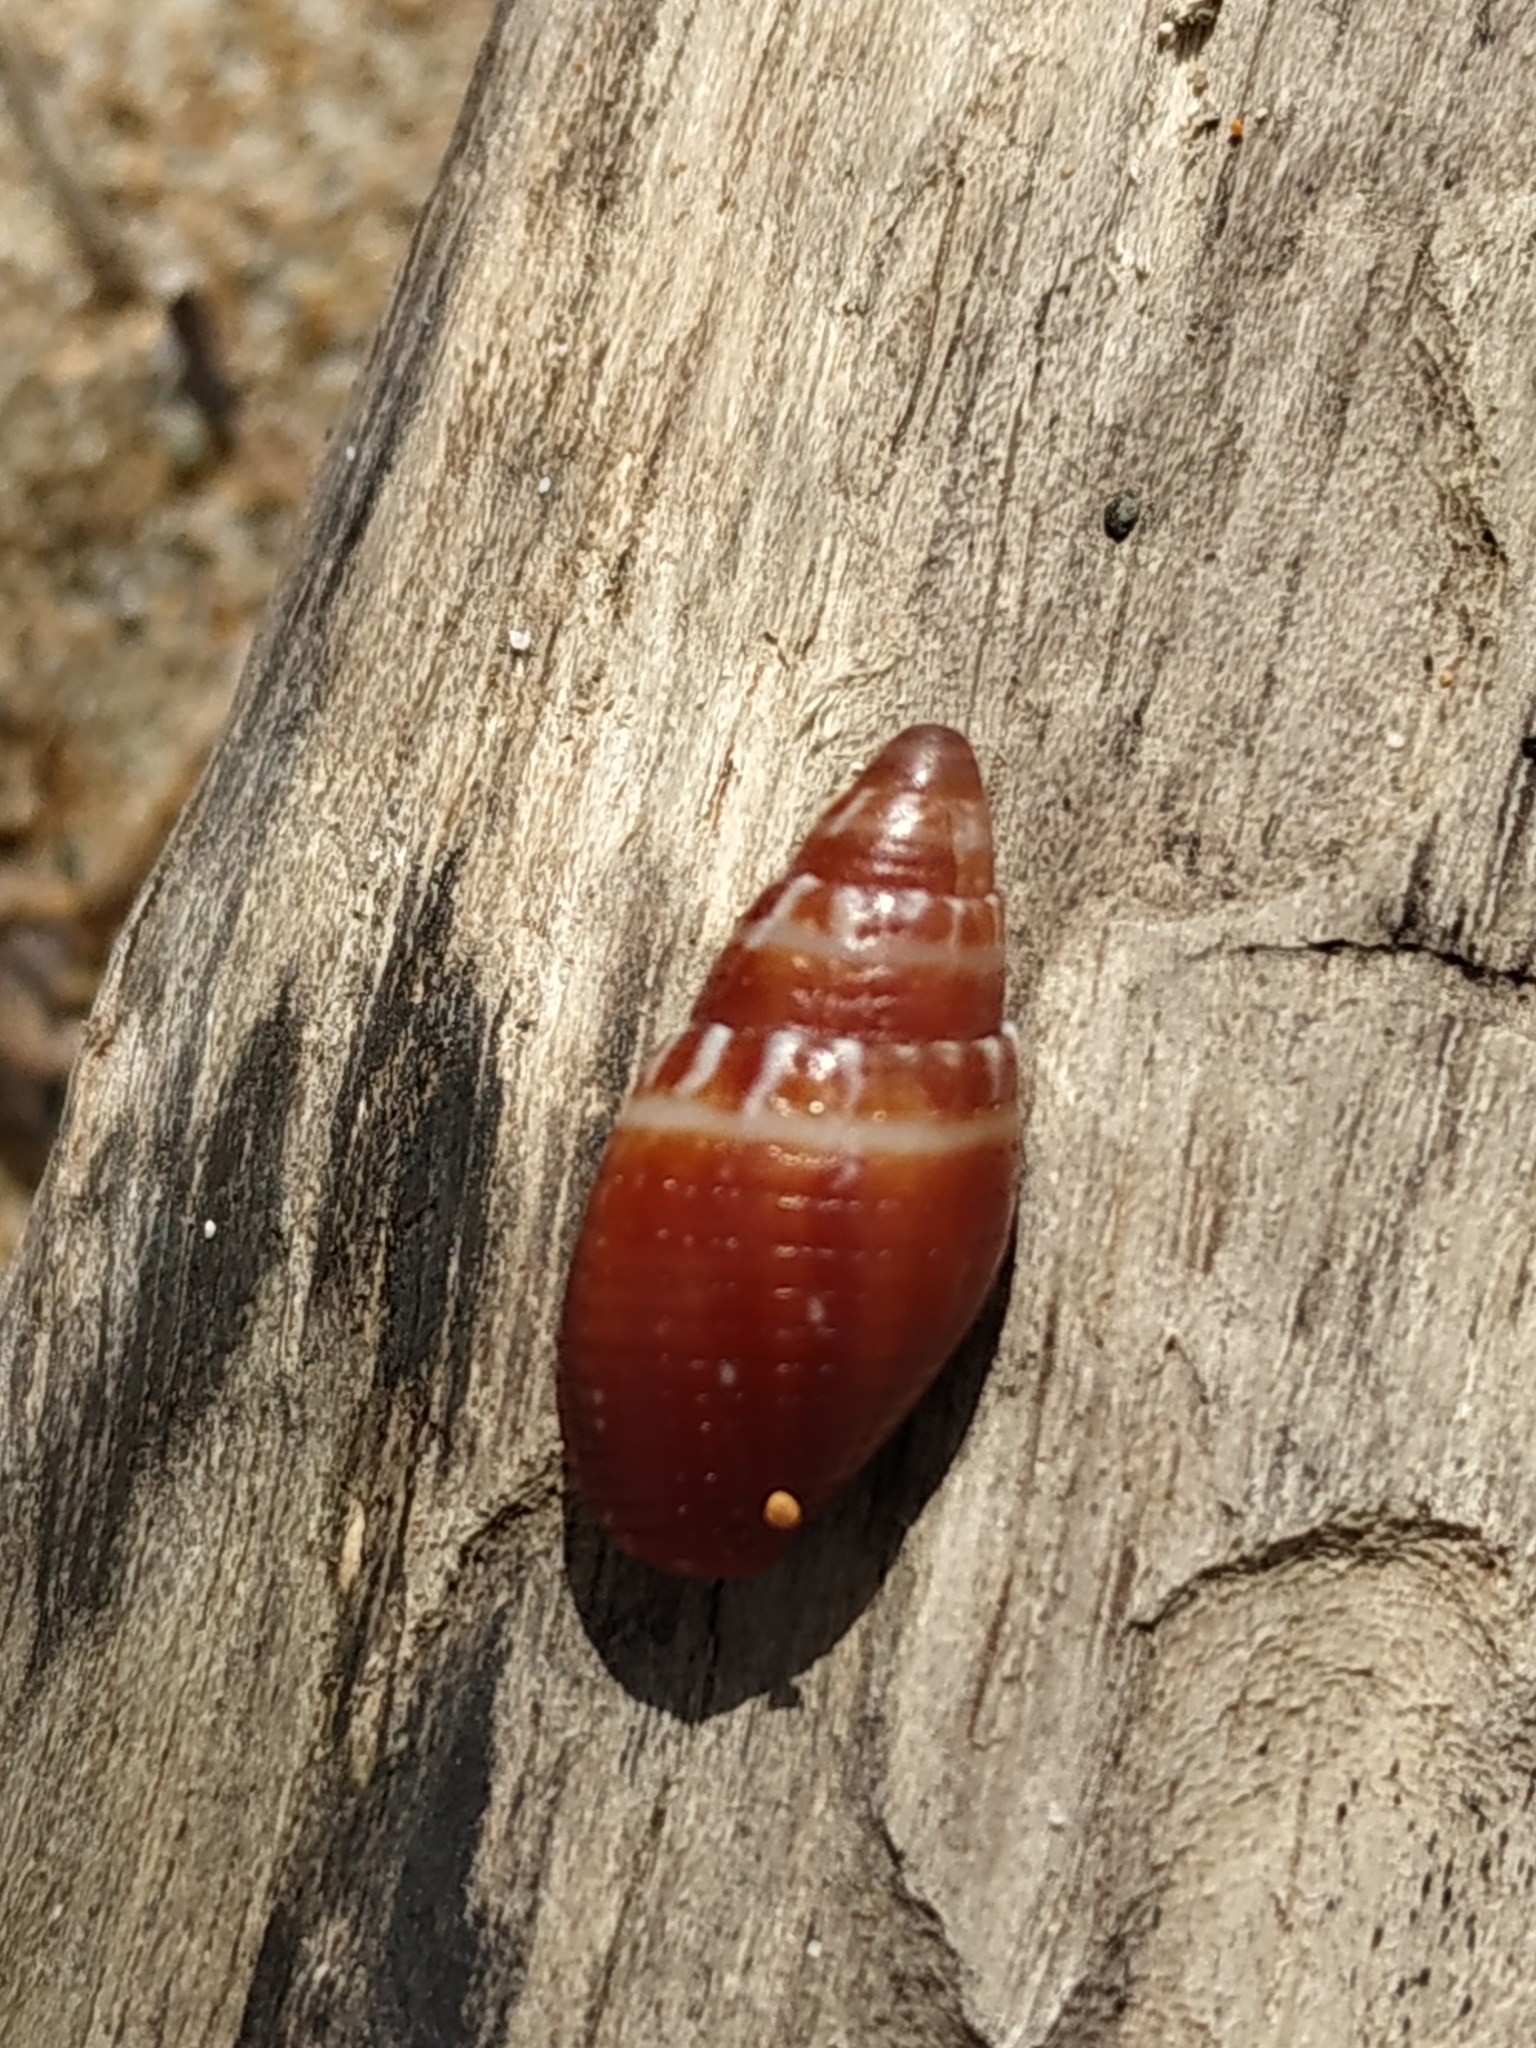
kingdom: Animalia
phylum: Mollusca
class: Gastropoda
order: Neogastropoda
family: Mitridae
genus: Strigatella
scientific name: Strigatella coronata
